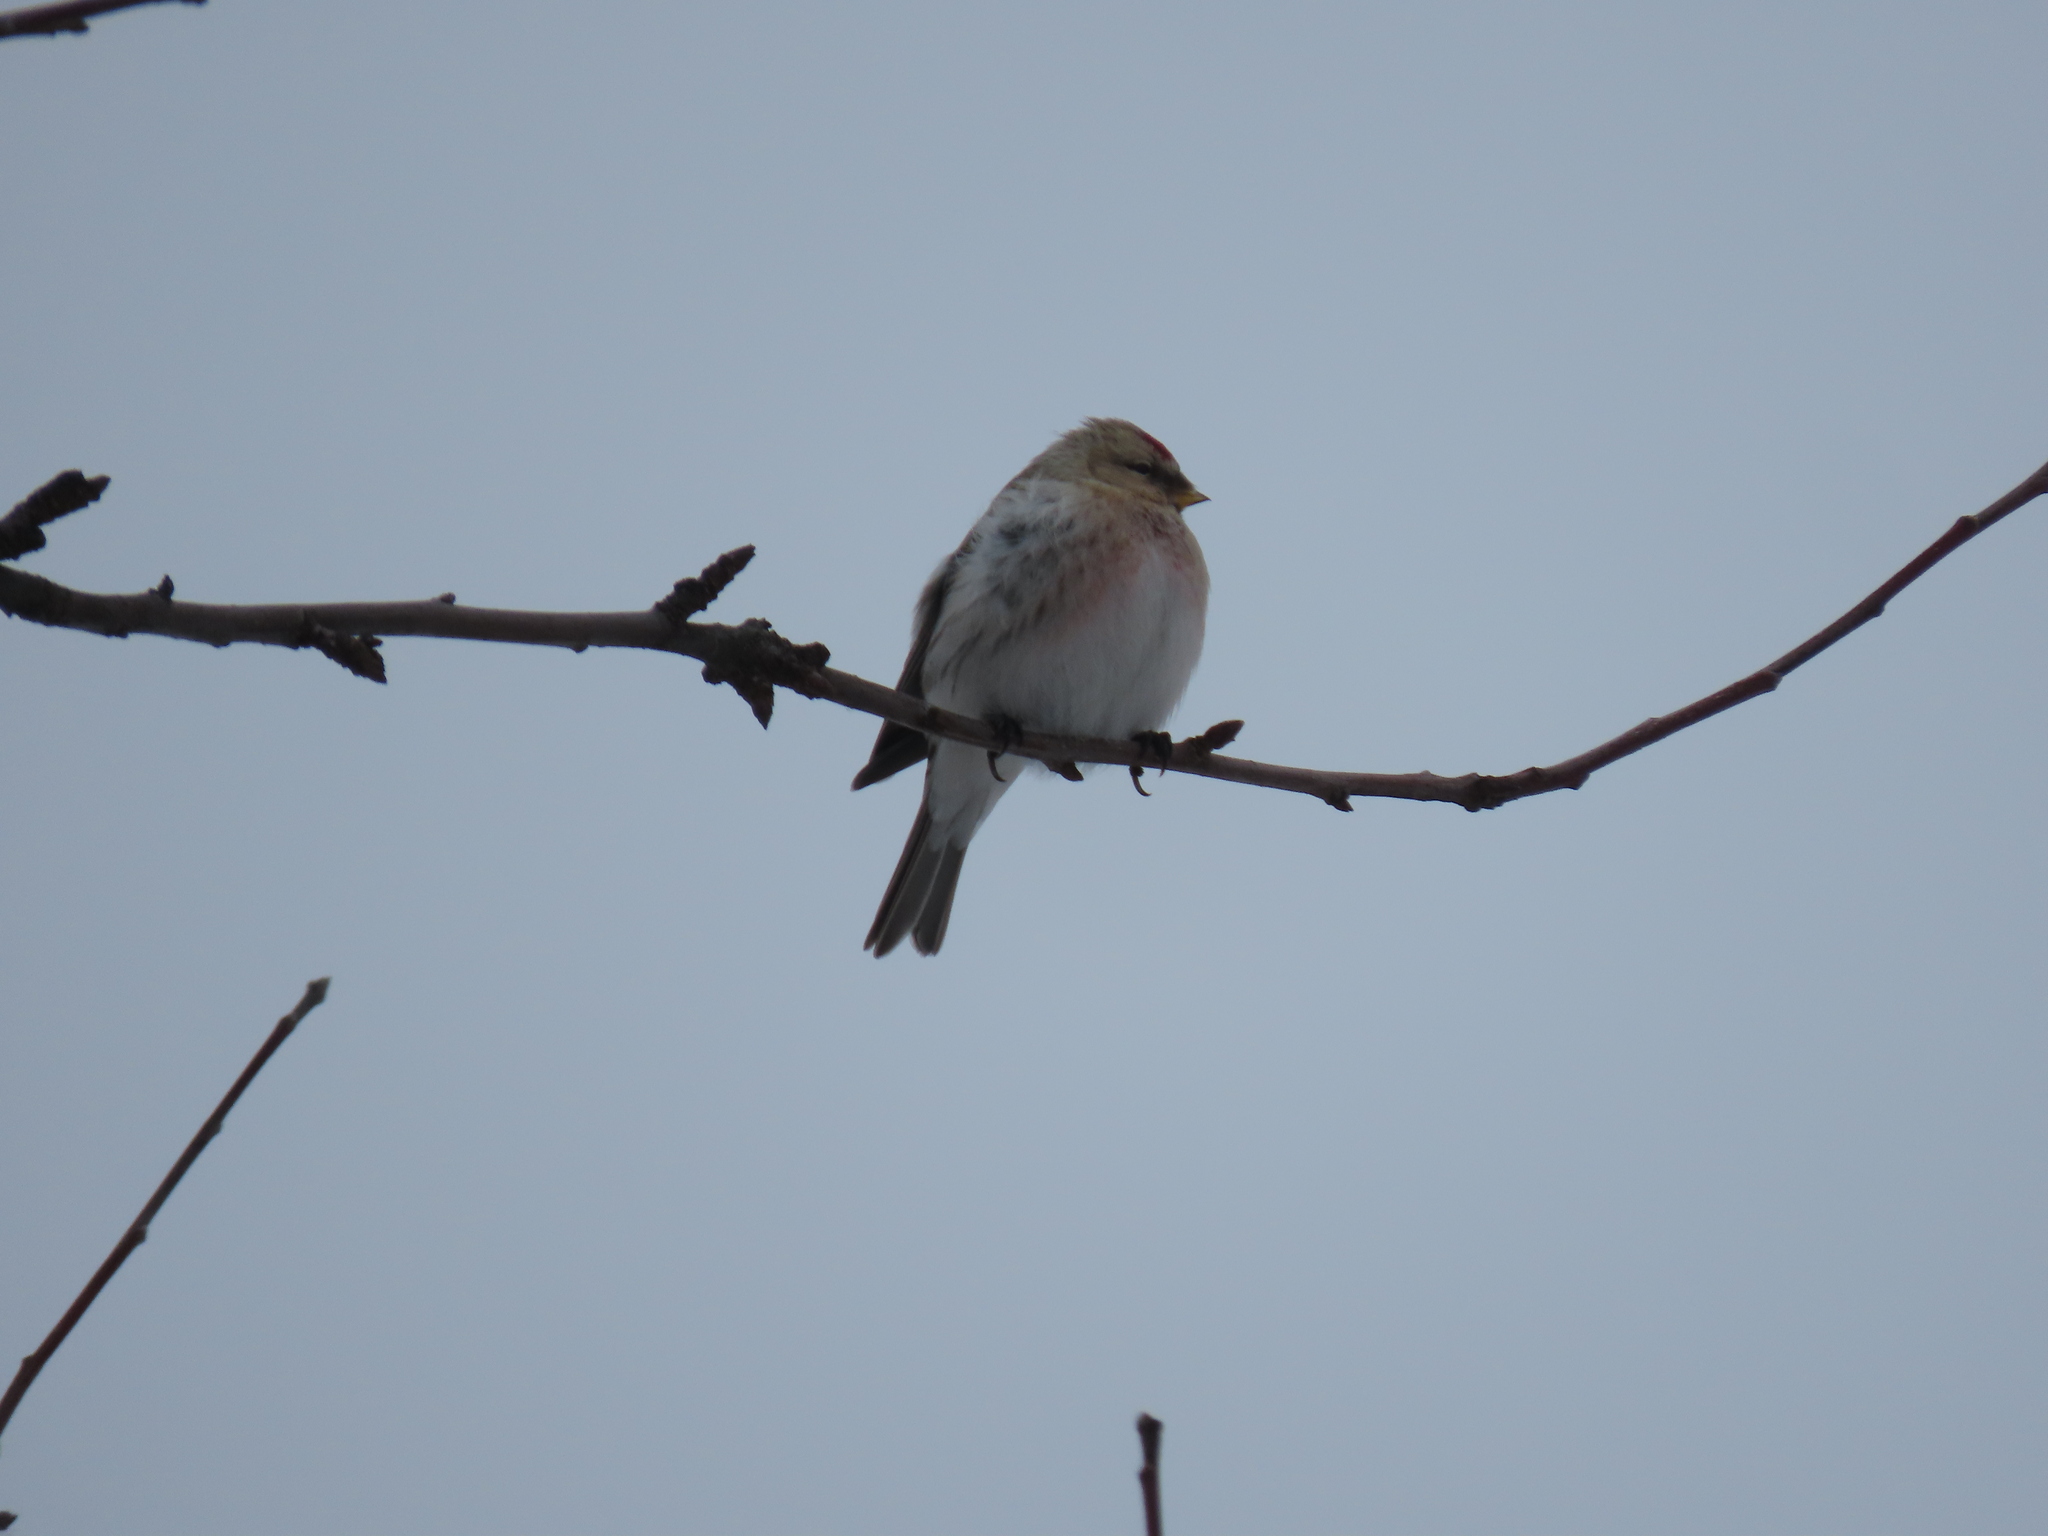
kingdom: Animalia
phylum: Chordata
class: Aves
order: Passeriformes
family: Fringillidae
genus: Acanthis
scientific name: Acanthis hornemanni
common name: Arctic redpoll
